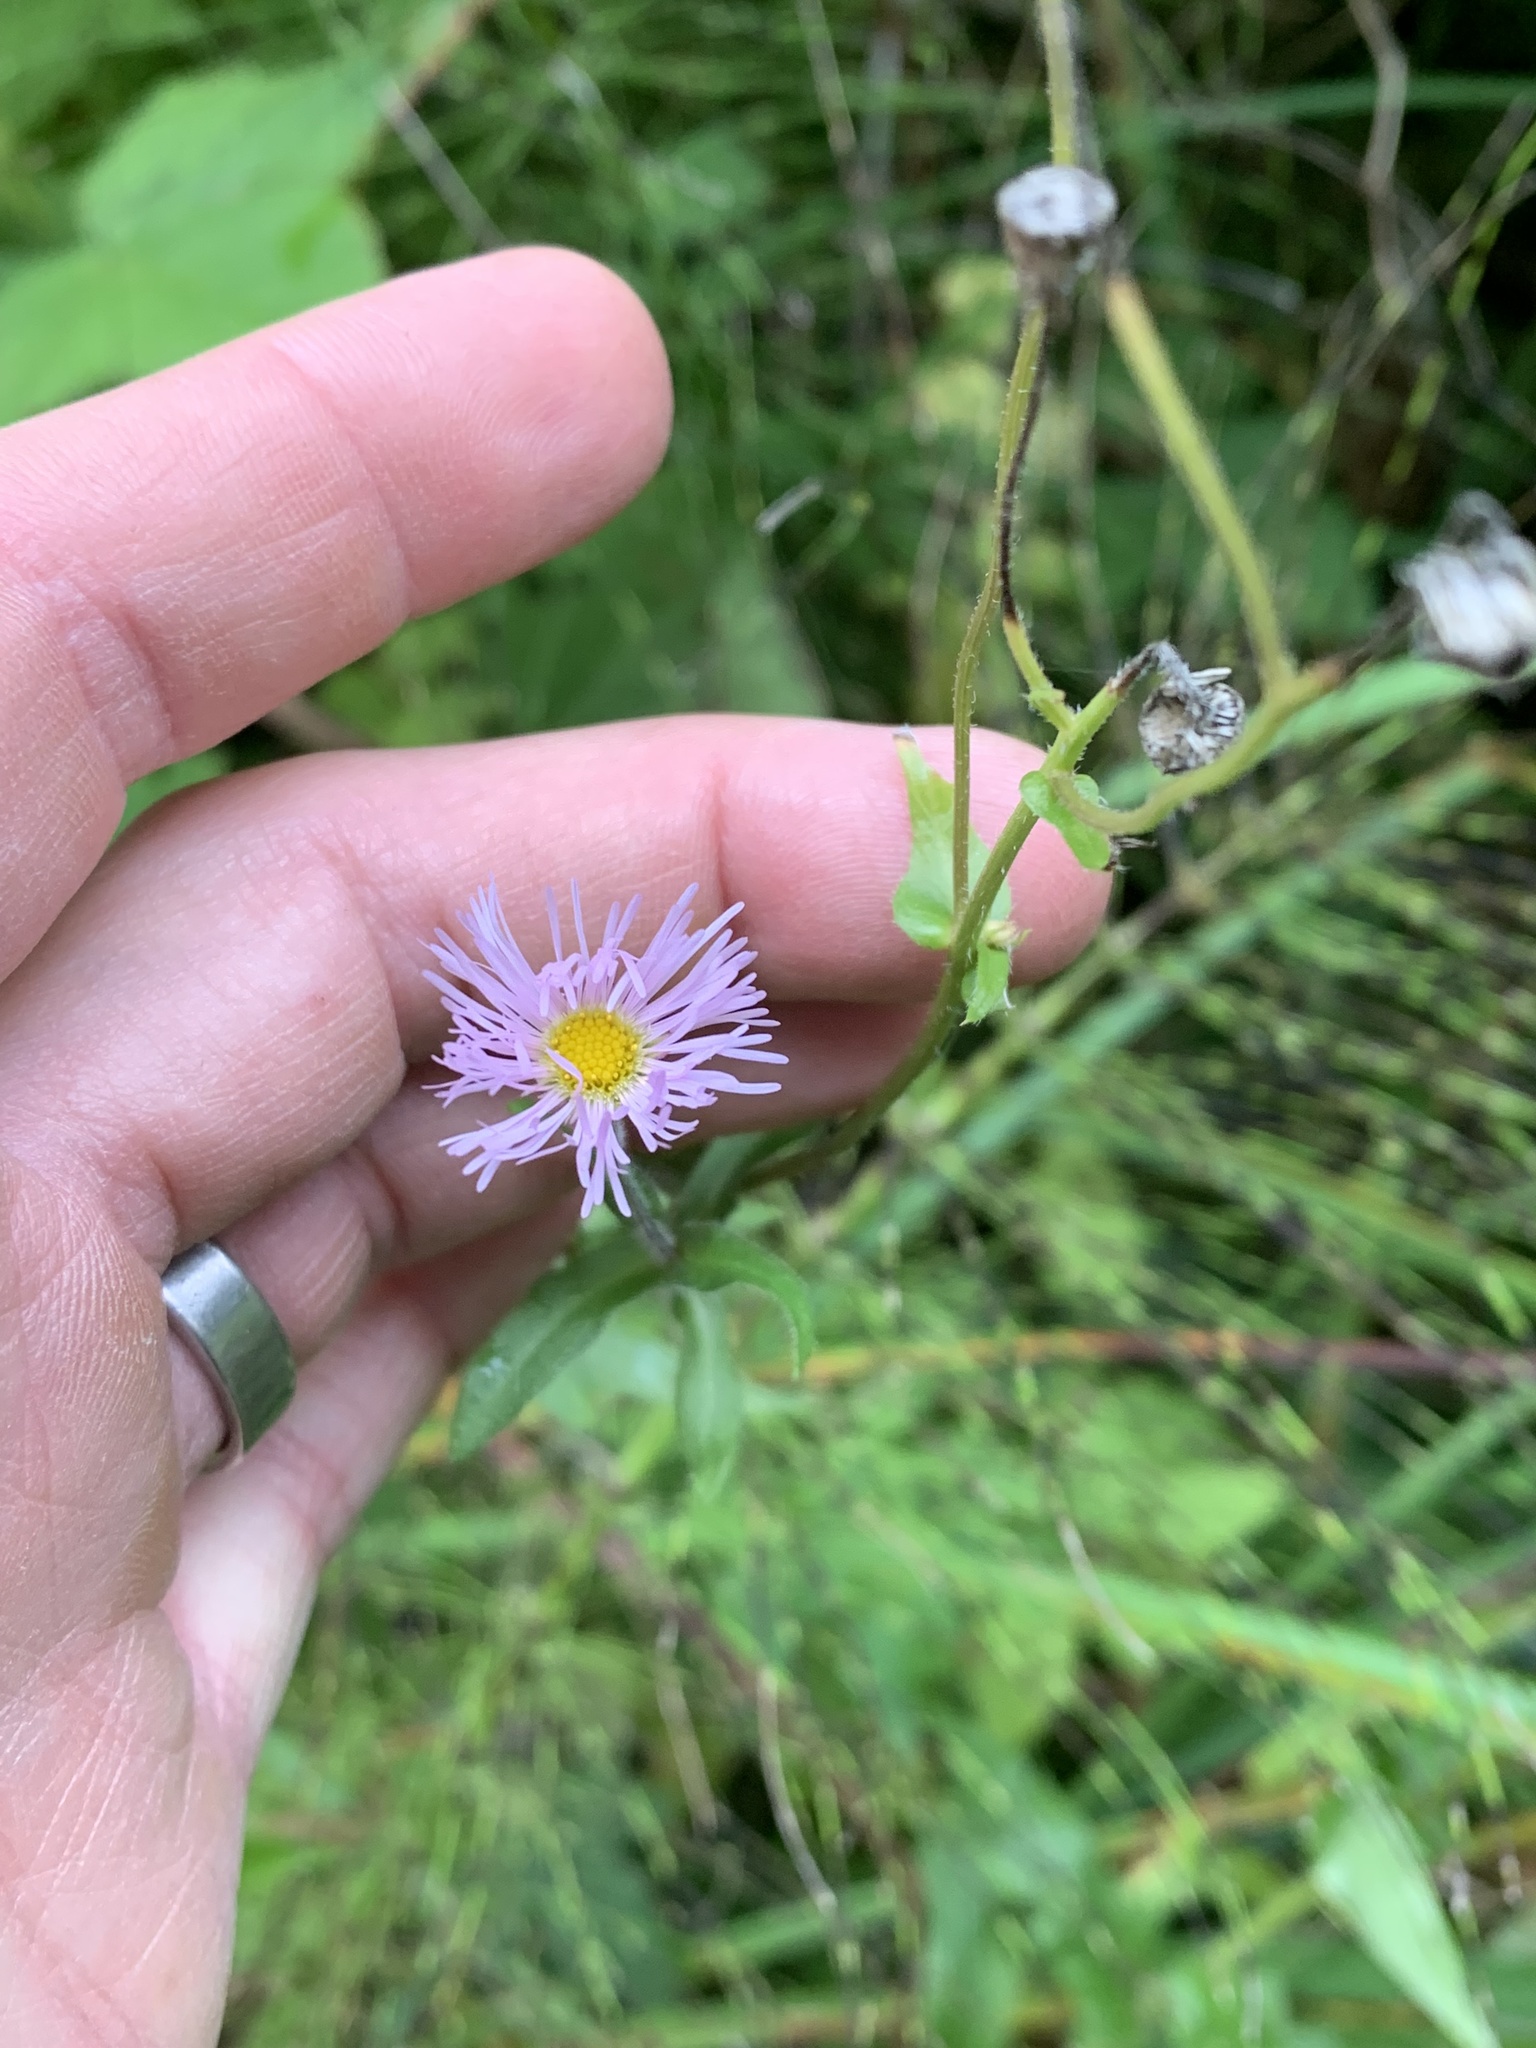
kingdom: Plantae
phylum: Tracheophyta
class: Magnoliopsida
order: Asterales
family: Asteraceae
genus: Erigeron
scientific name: Erigeron philadelphicus
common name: Robin's-plantain
